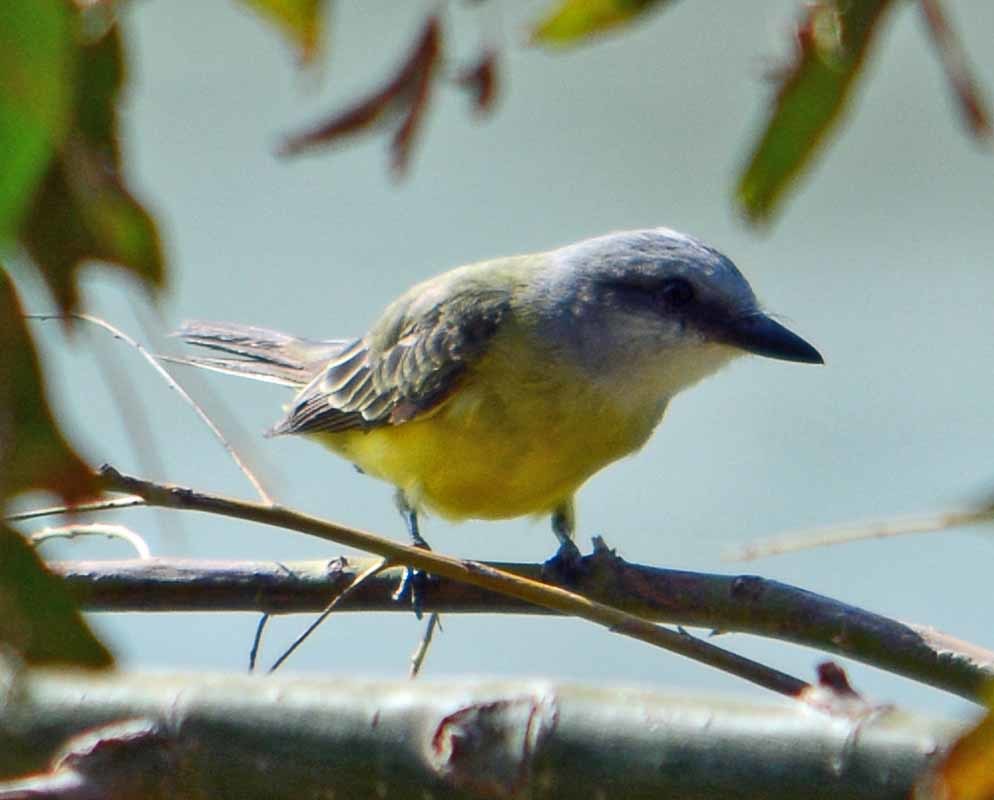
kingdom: Animalia
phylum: Chordata
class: Aves
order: Passeriformes
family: Tyrannidae
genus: Tyrannus
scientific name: Tyrannus
